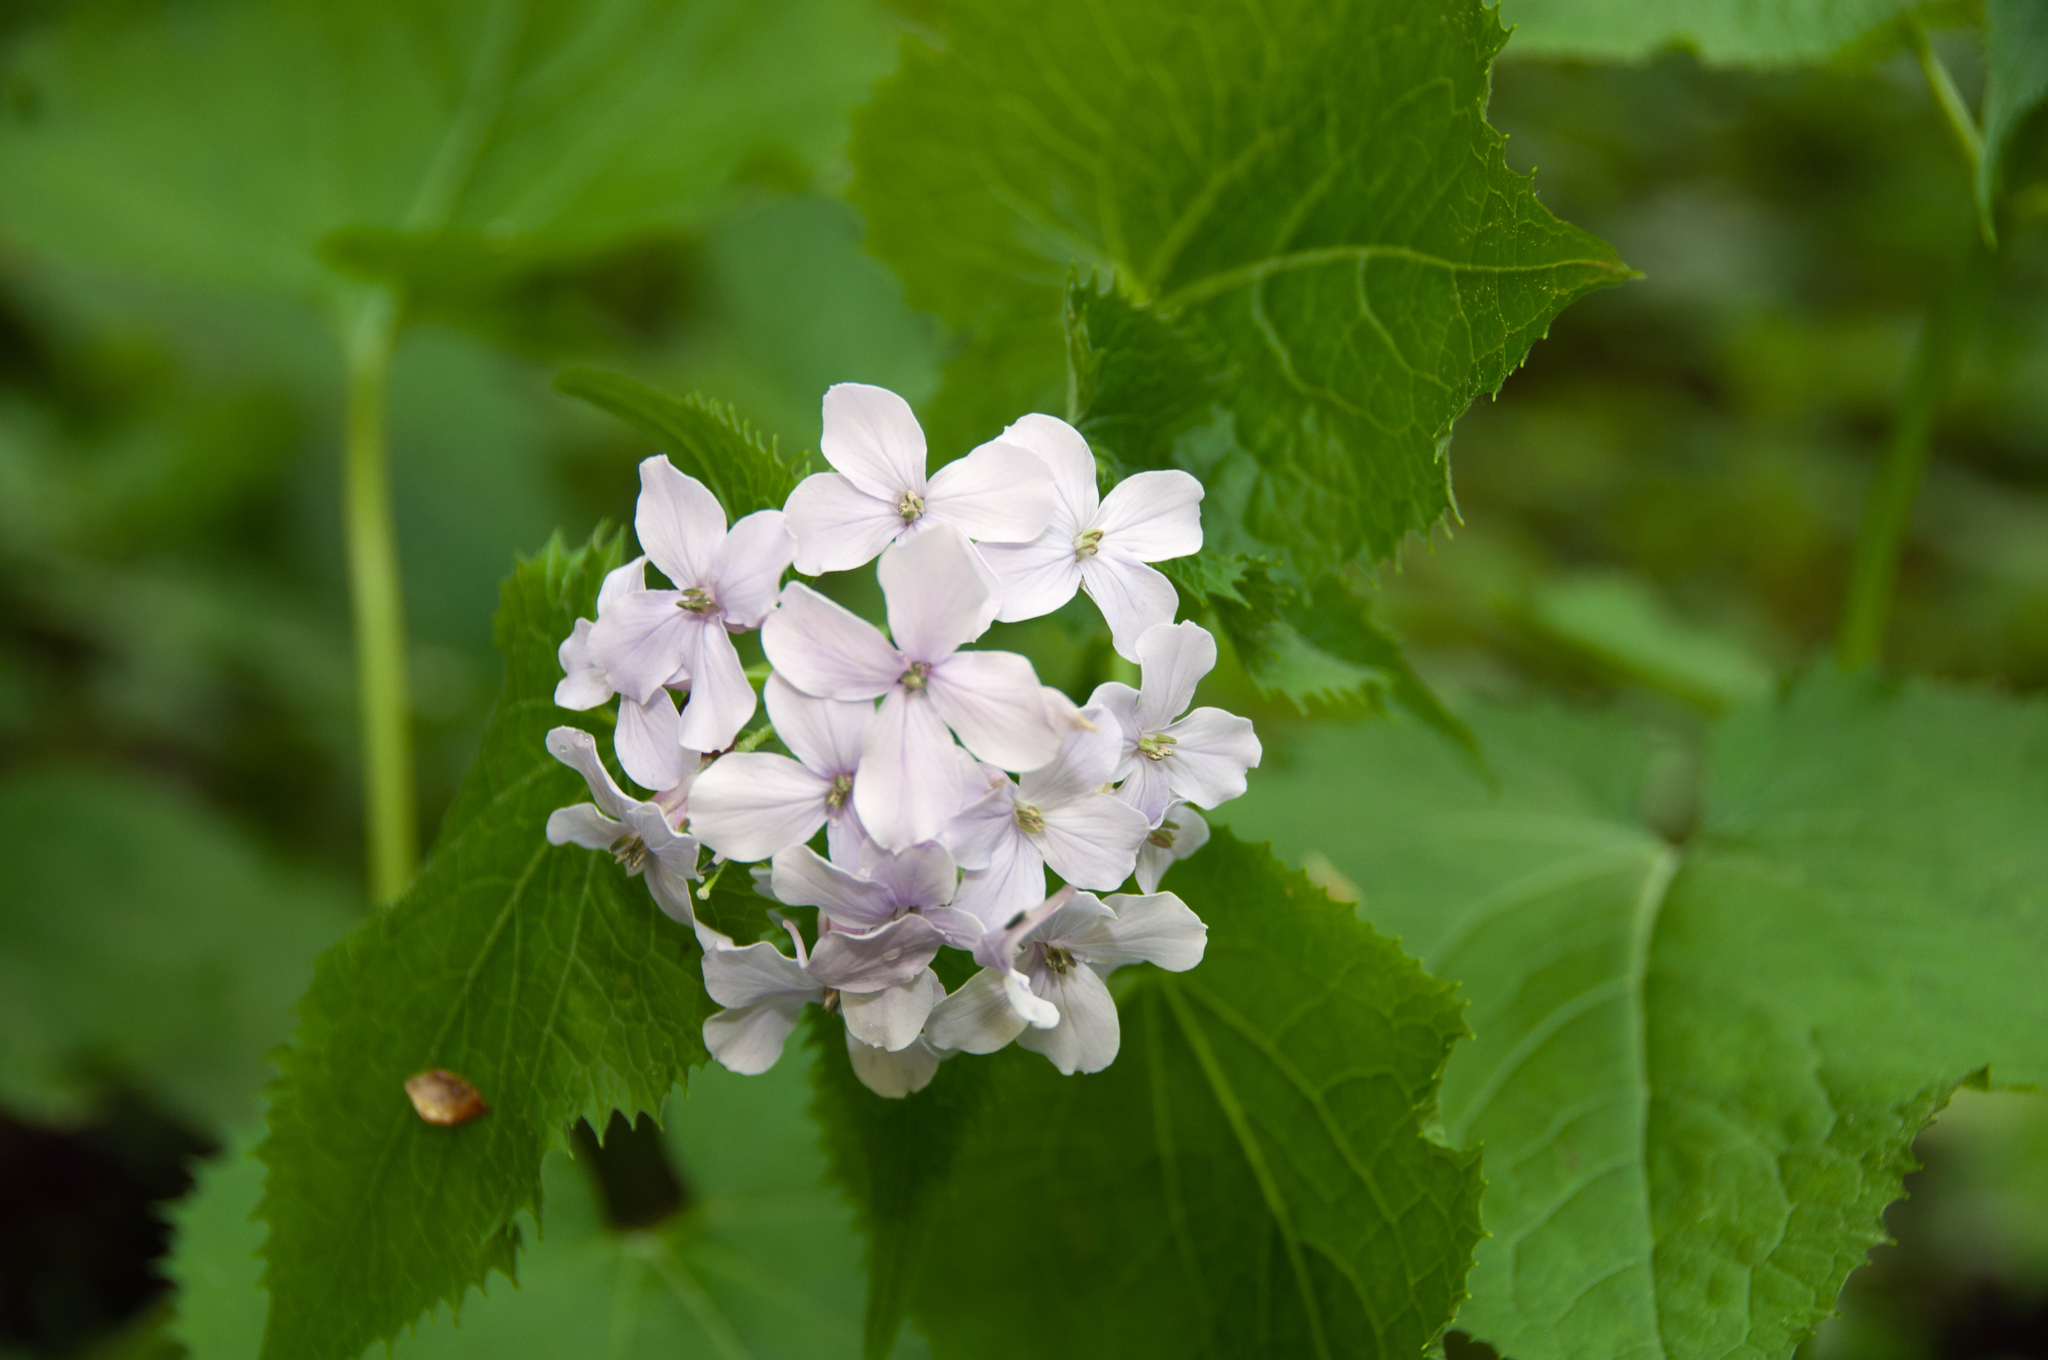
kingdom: Plantae
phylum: Tracheophyta
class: Magnoliopsida
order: Brassicales
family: Brassicaceae
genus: Lunaria
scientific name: Lunaria rediviva
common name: Perennial honesty
